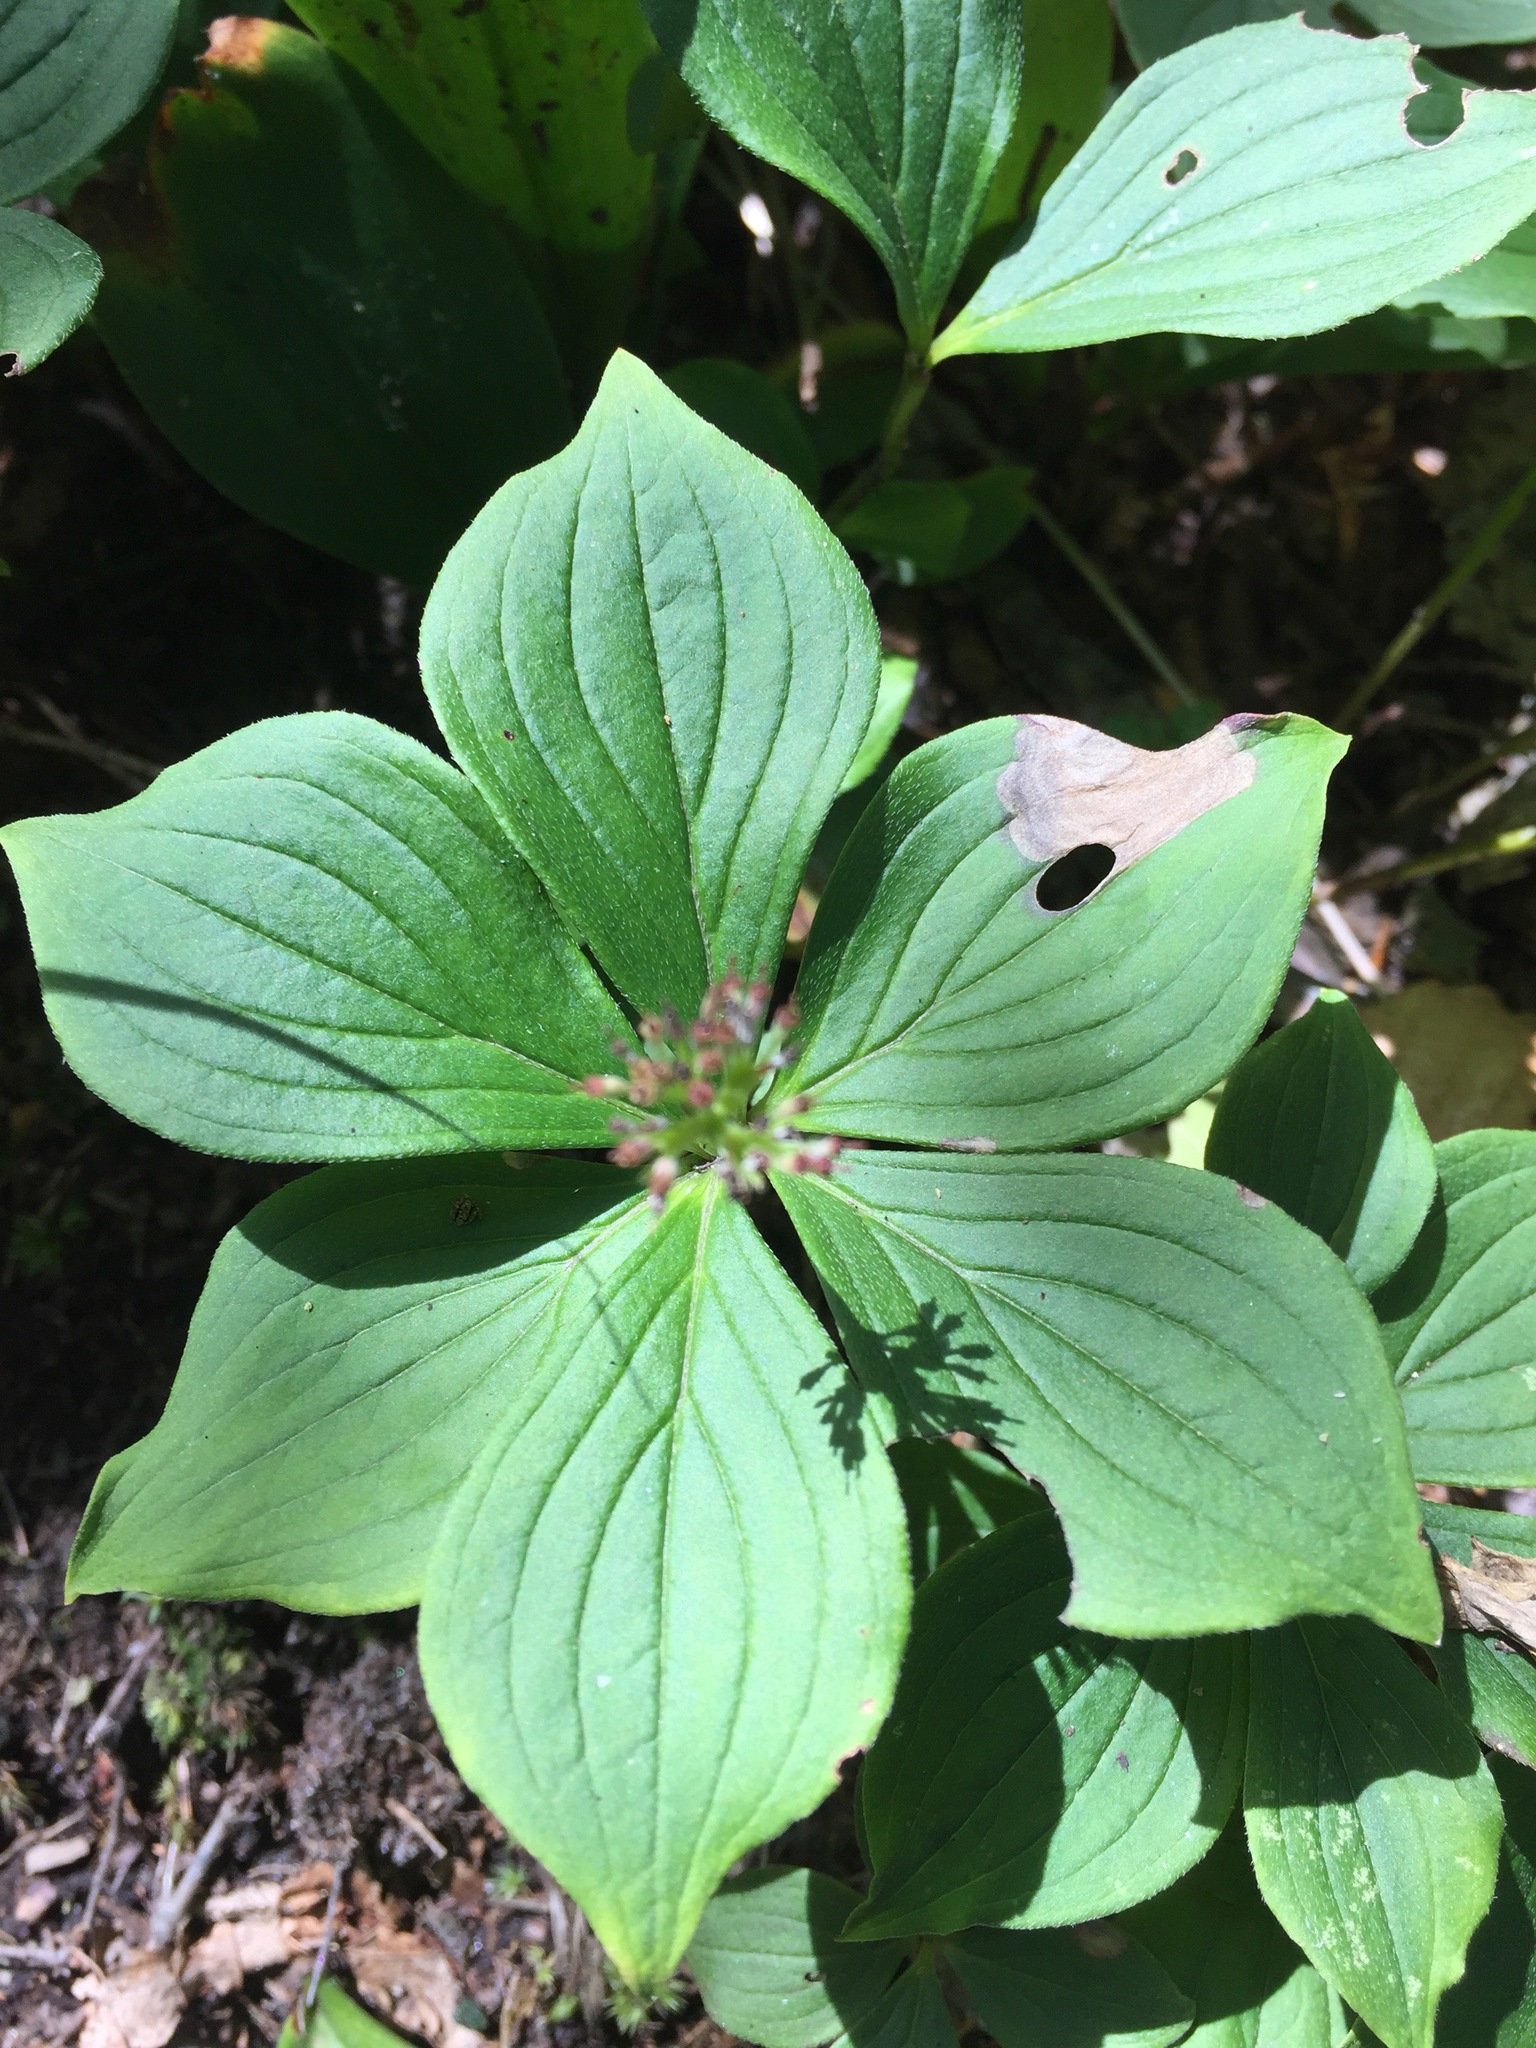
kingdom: Plantae
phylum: Tracheophyta
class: Magnoliopsida
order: Cornales
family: Cornaceae
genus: Cornus
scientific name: Cornus canadensis
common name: Creeping dogwood
